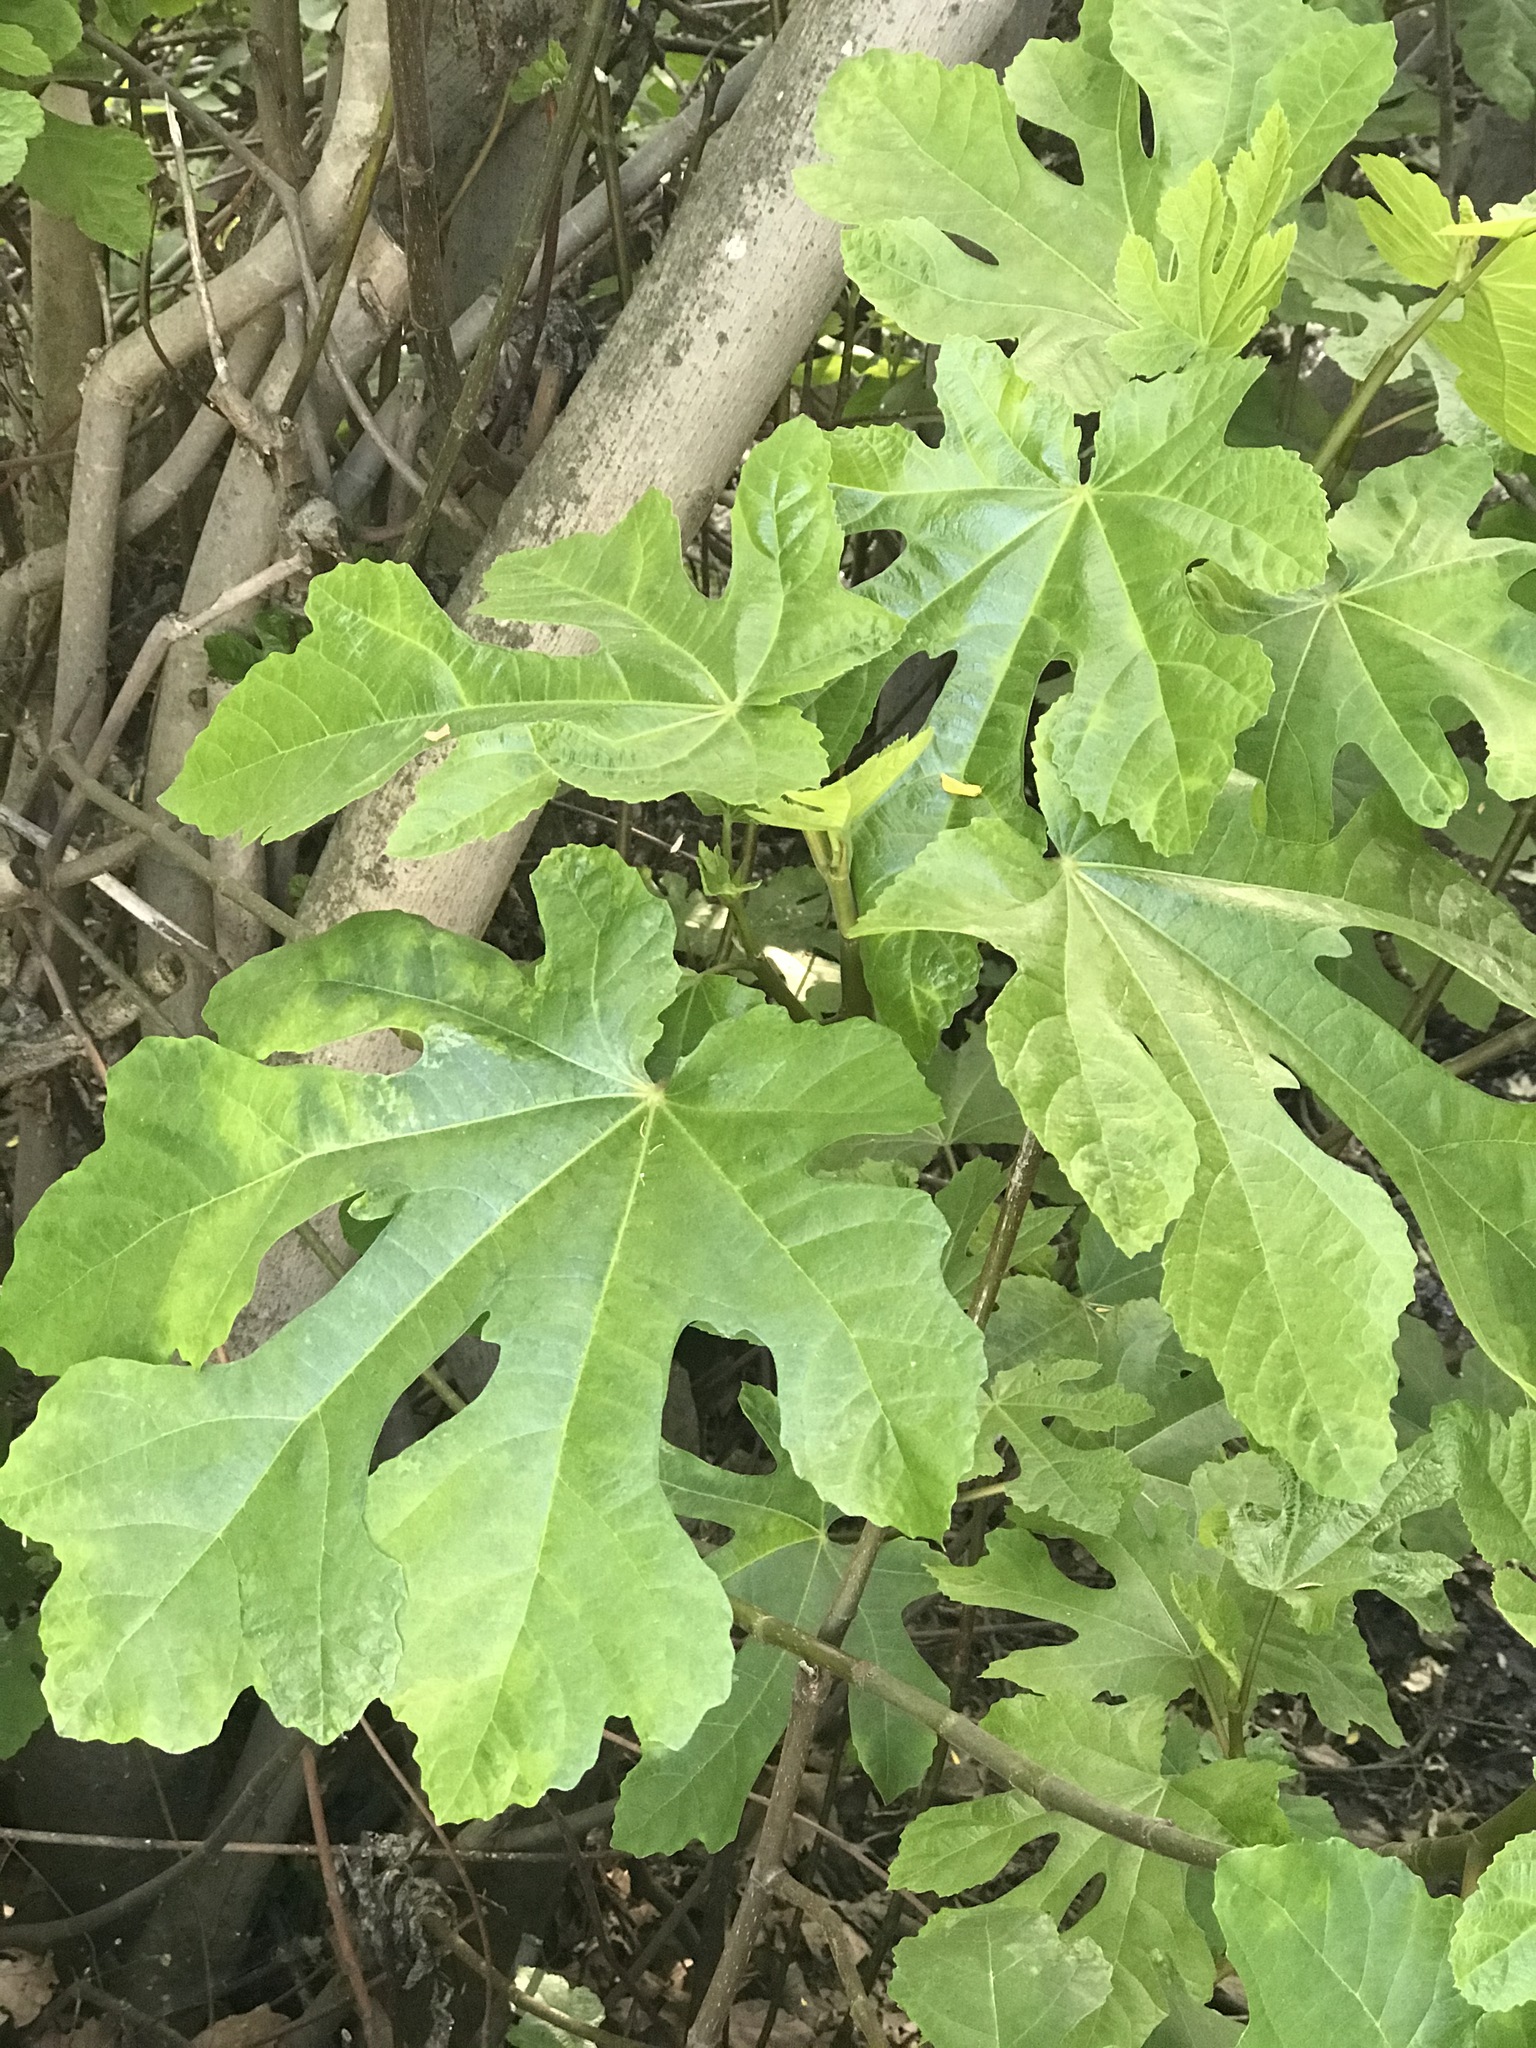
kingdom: Plantae
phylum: Tracheophyta
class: Magnoliopsida
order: Rosales
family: Moraceae
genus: Ficus
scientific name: Ficus carica
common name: Fig
